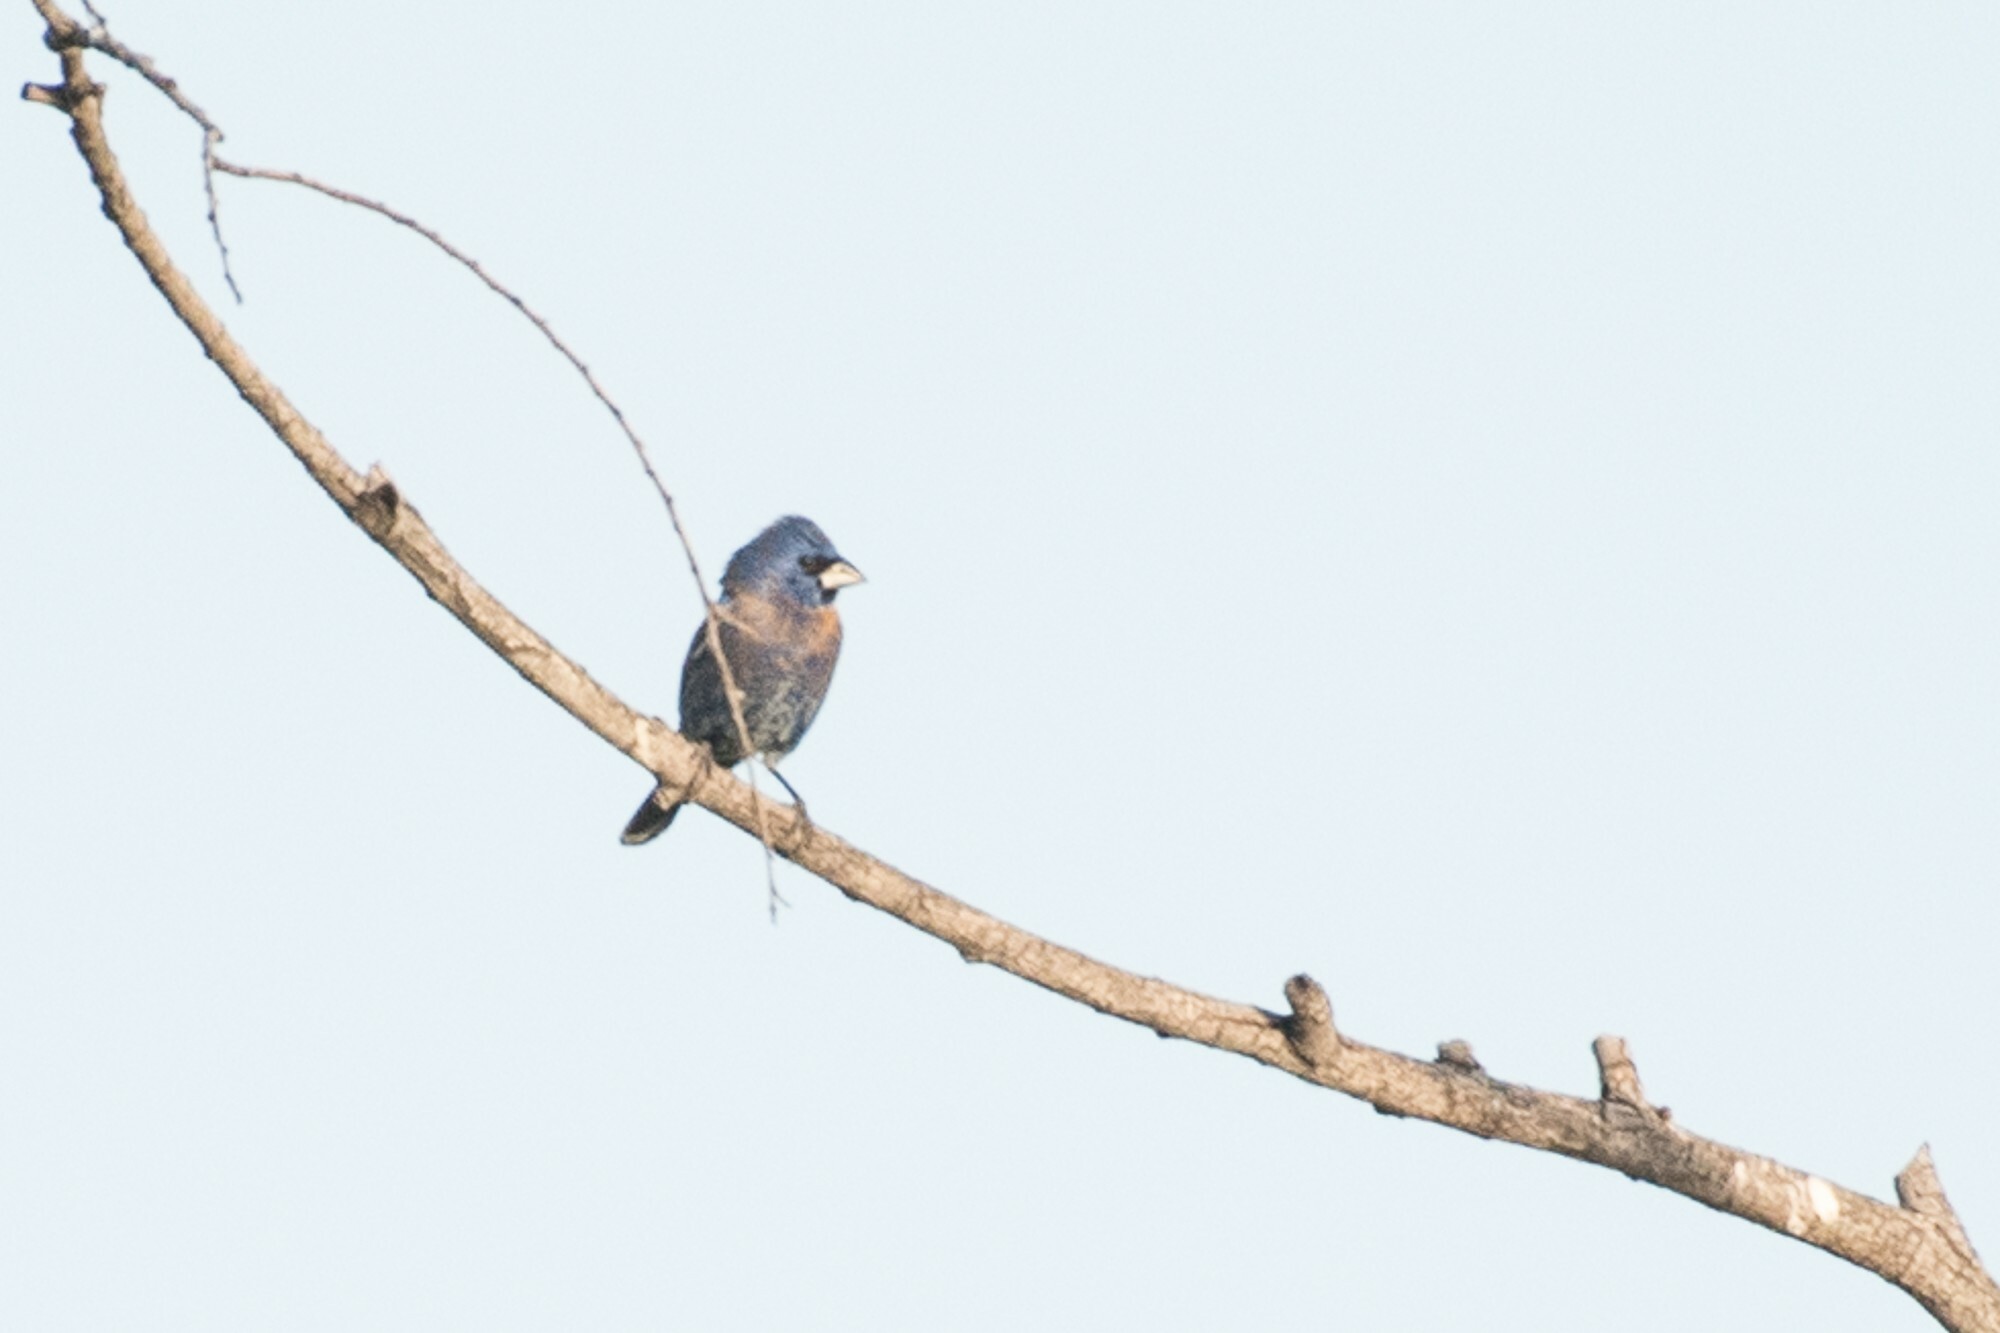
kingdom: Animalia
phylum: Chordata
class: Aves
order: Passeriformes
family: Cardinalidae
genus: Passerina
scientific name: Passerina caerulea
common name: Blue grosbeak
